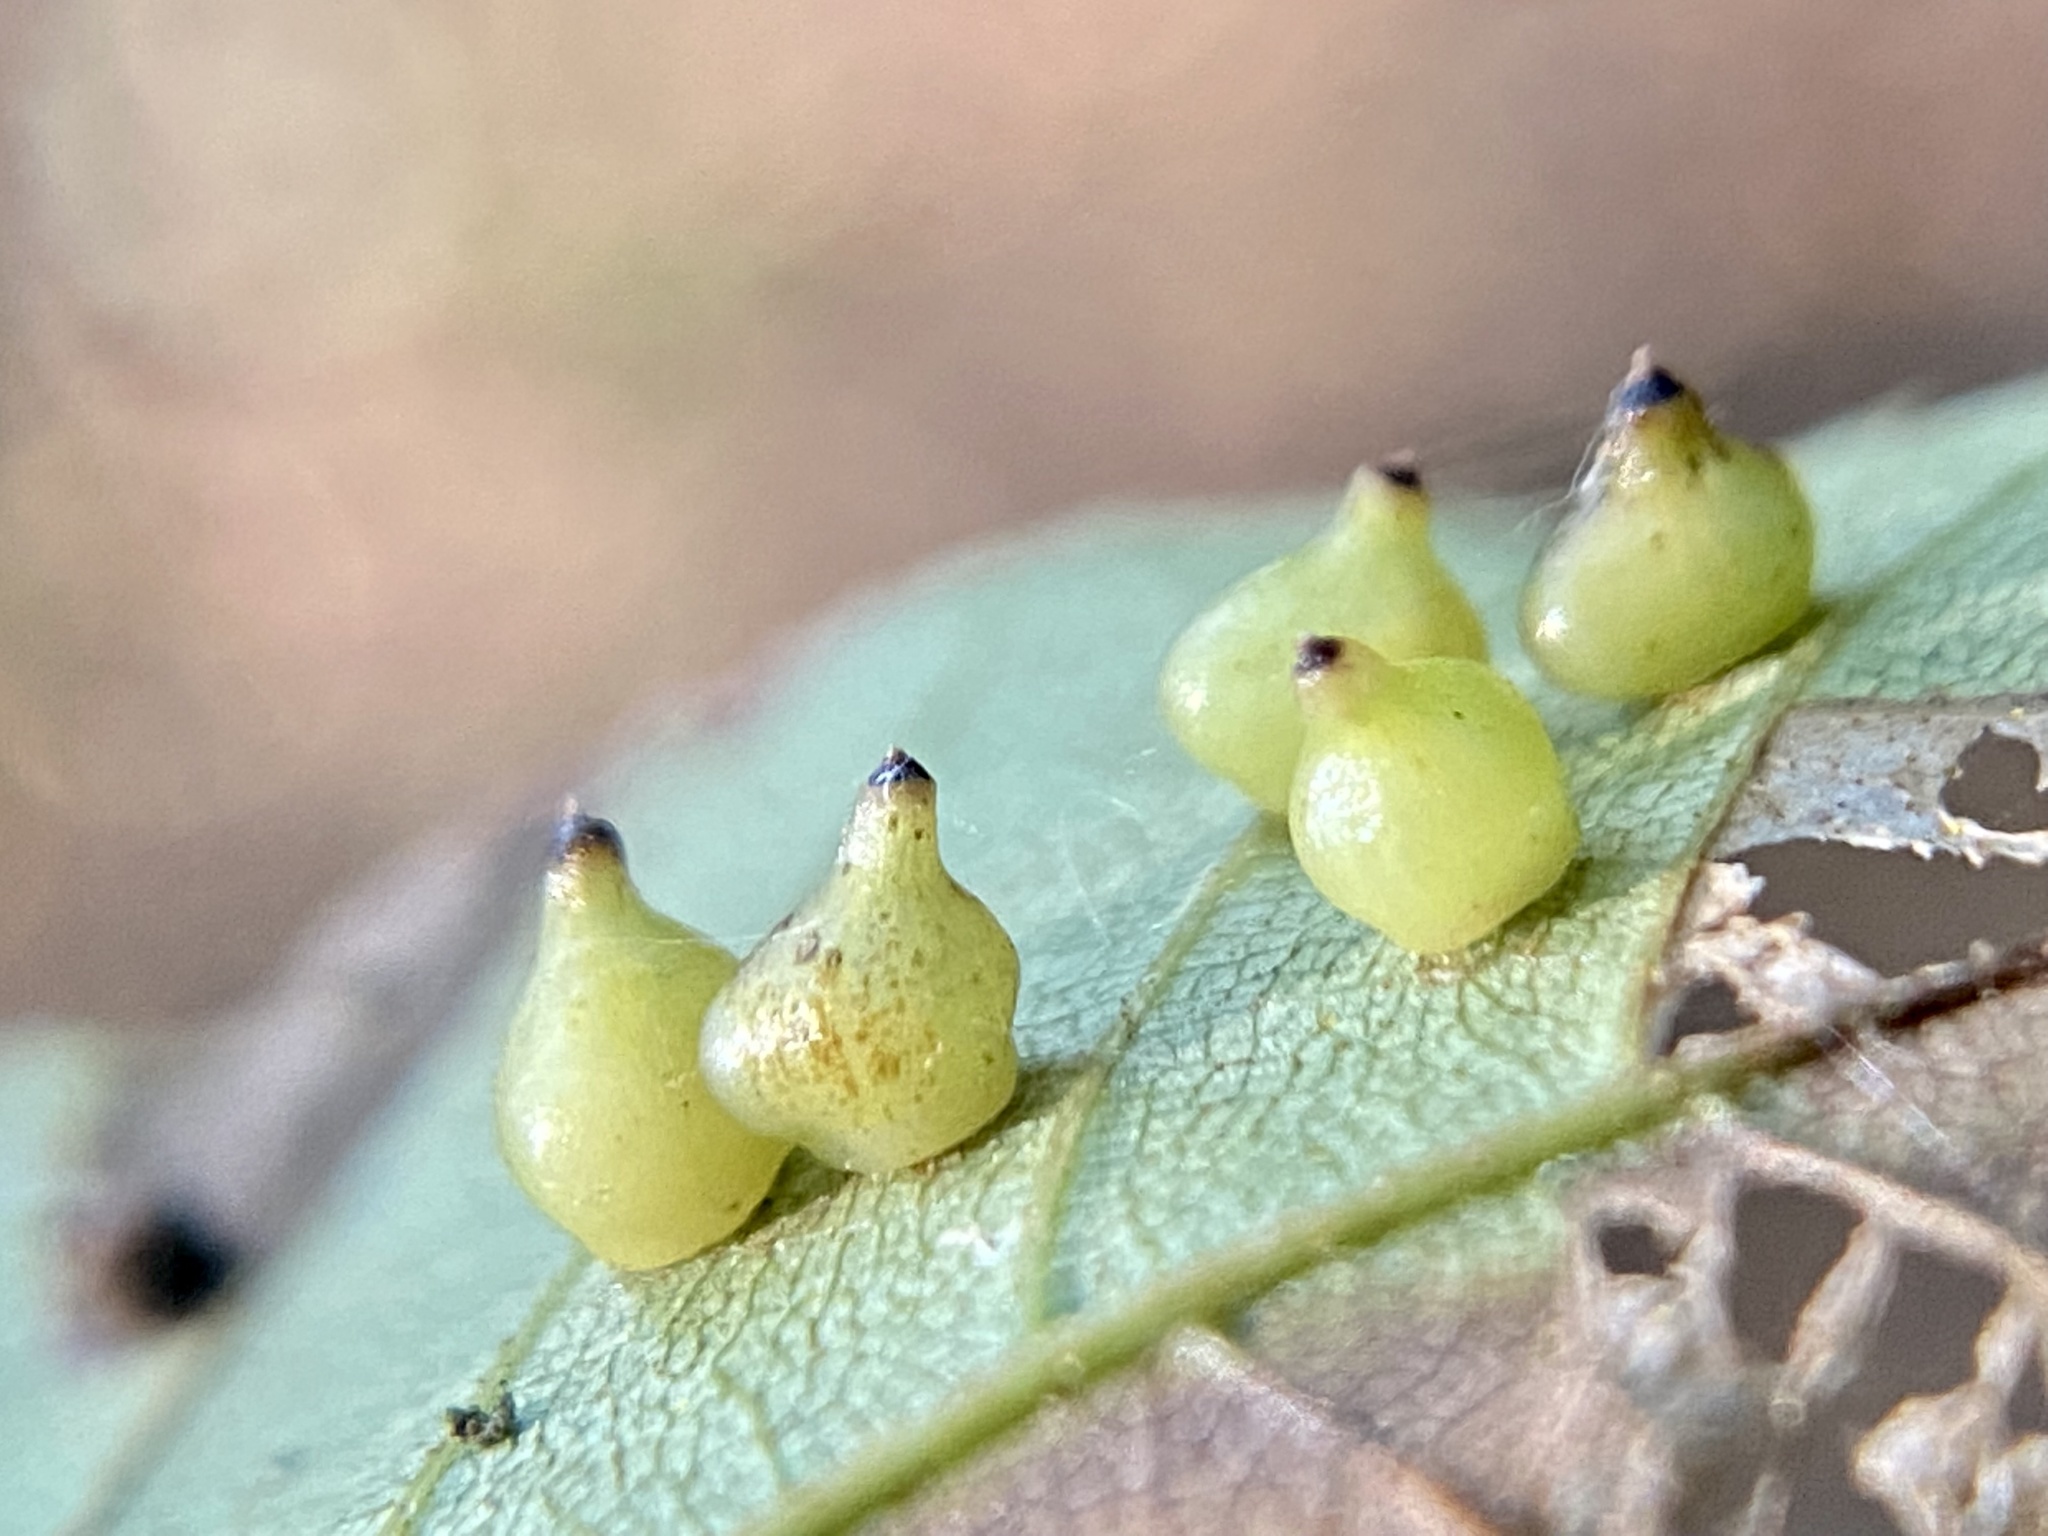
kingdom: Animalia
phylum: Arthropoda
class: Insecta
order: Diptera
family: Cecidomyiidae
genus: Caryomyia
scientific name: Caryomyia shmoo
